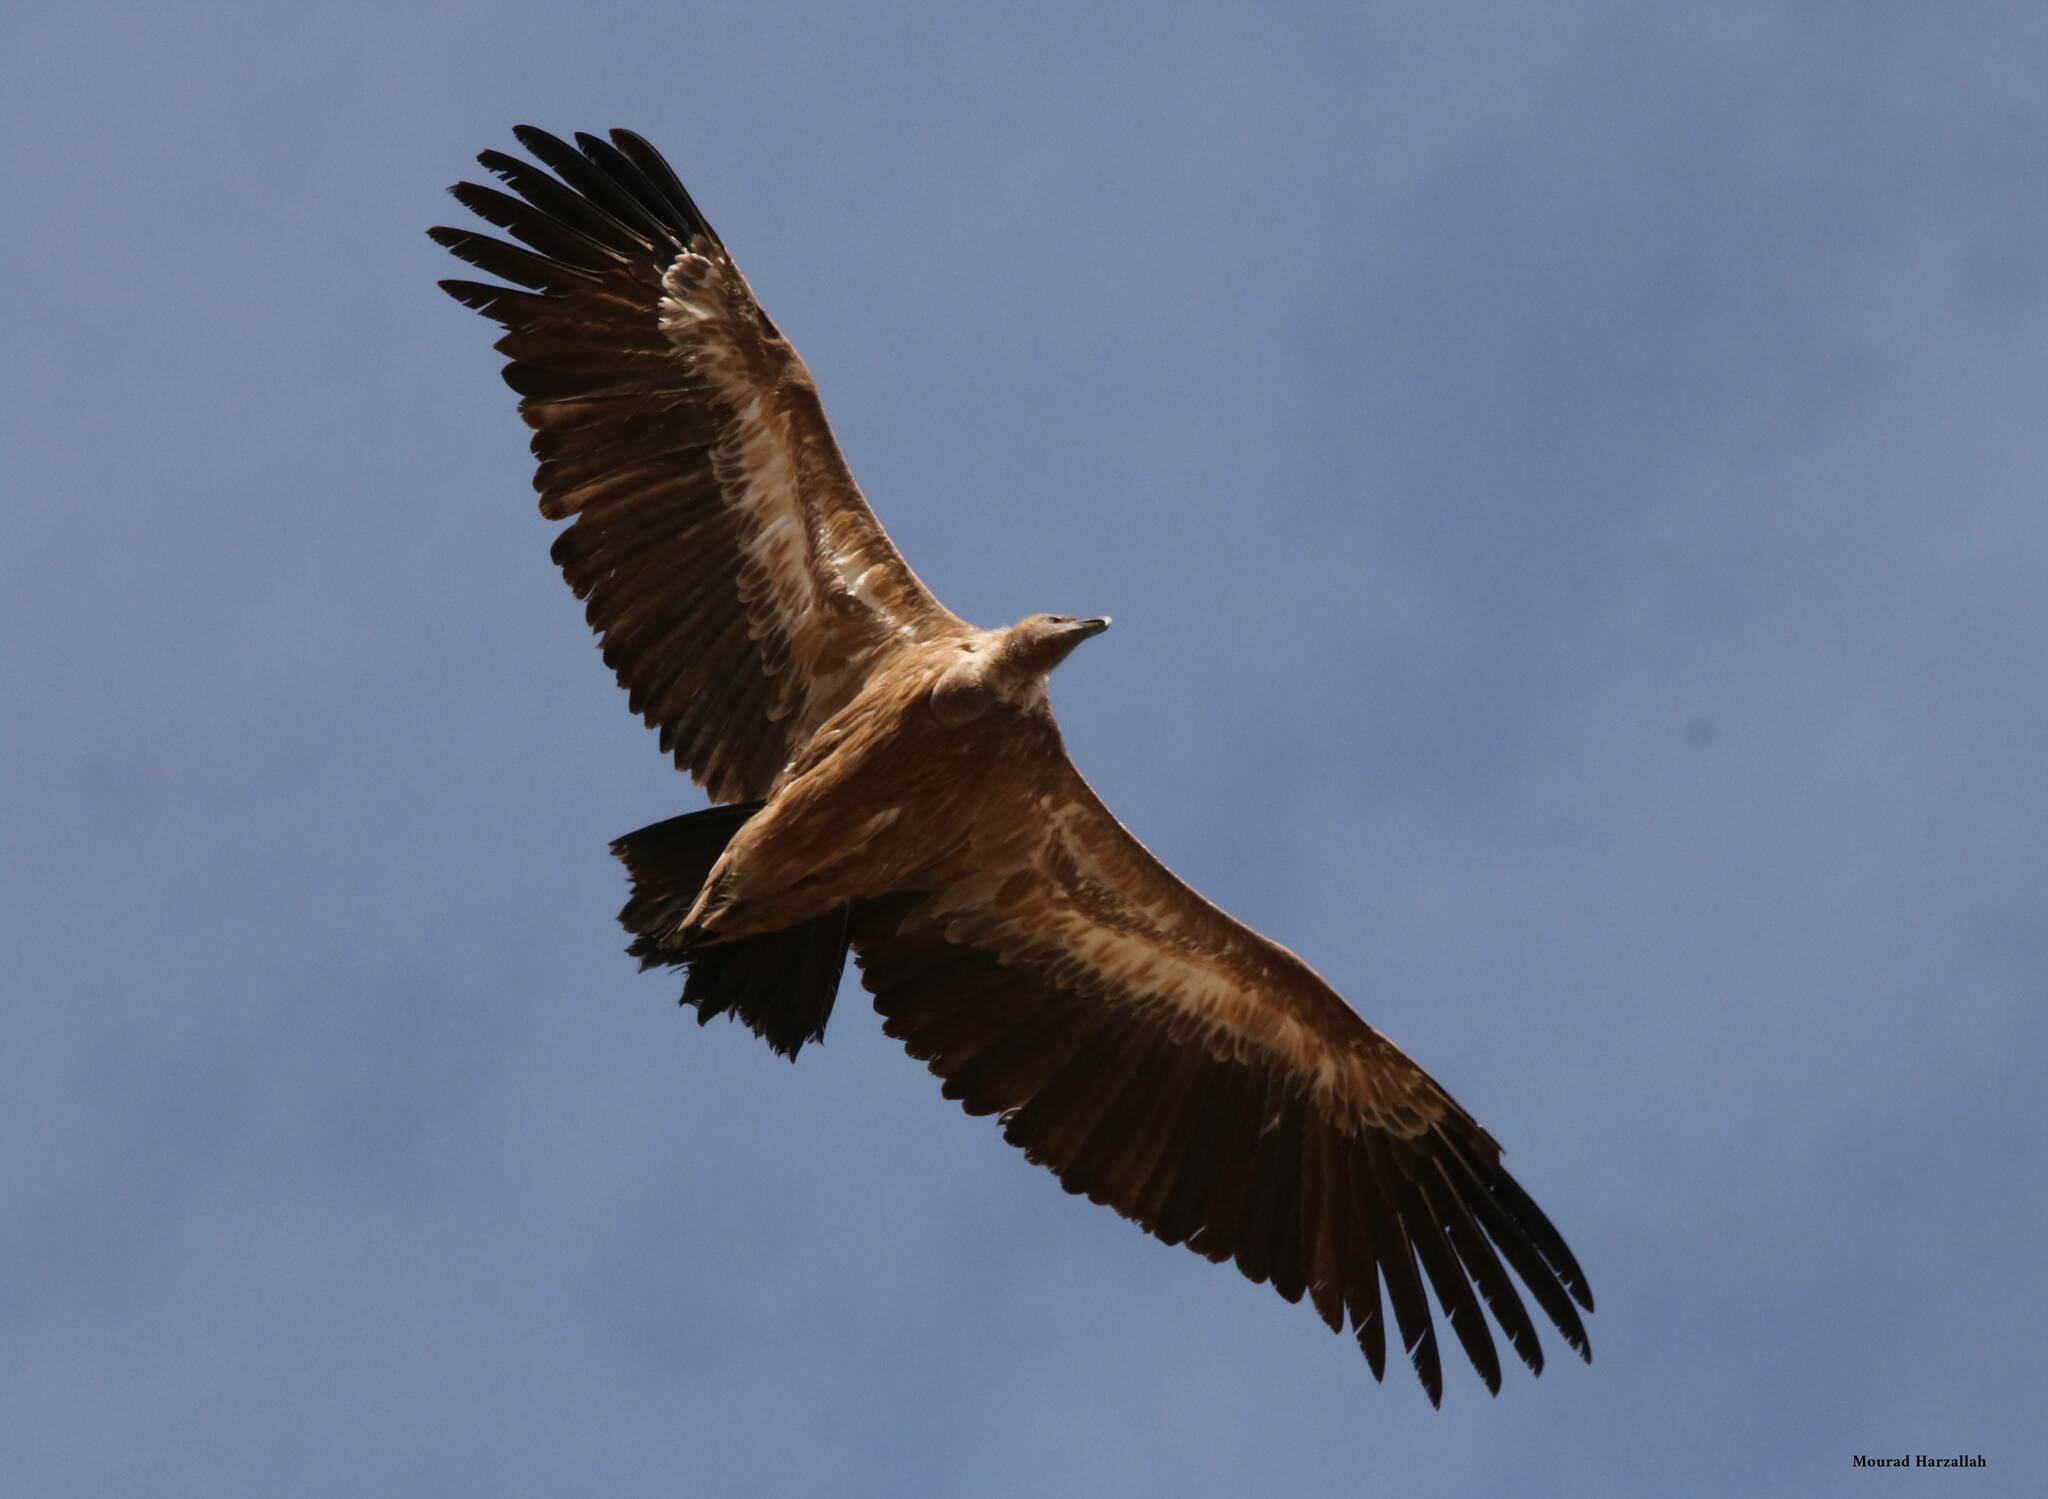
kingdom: Animalia
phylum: Chordata
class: Aves
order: Accipitriformes
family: Accipitridae
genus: Gyps
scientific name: Gyps fulvus
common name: Griffon vulture
